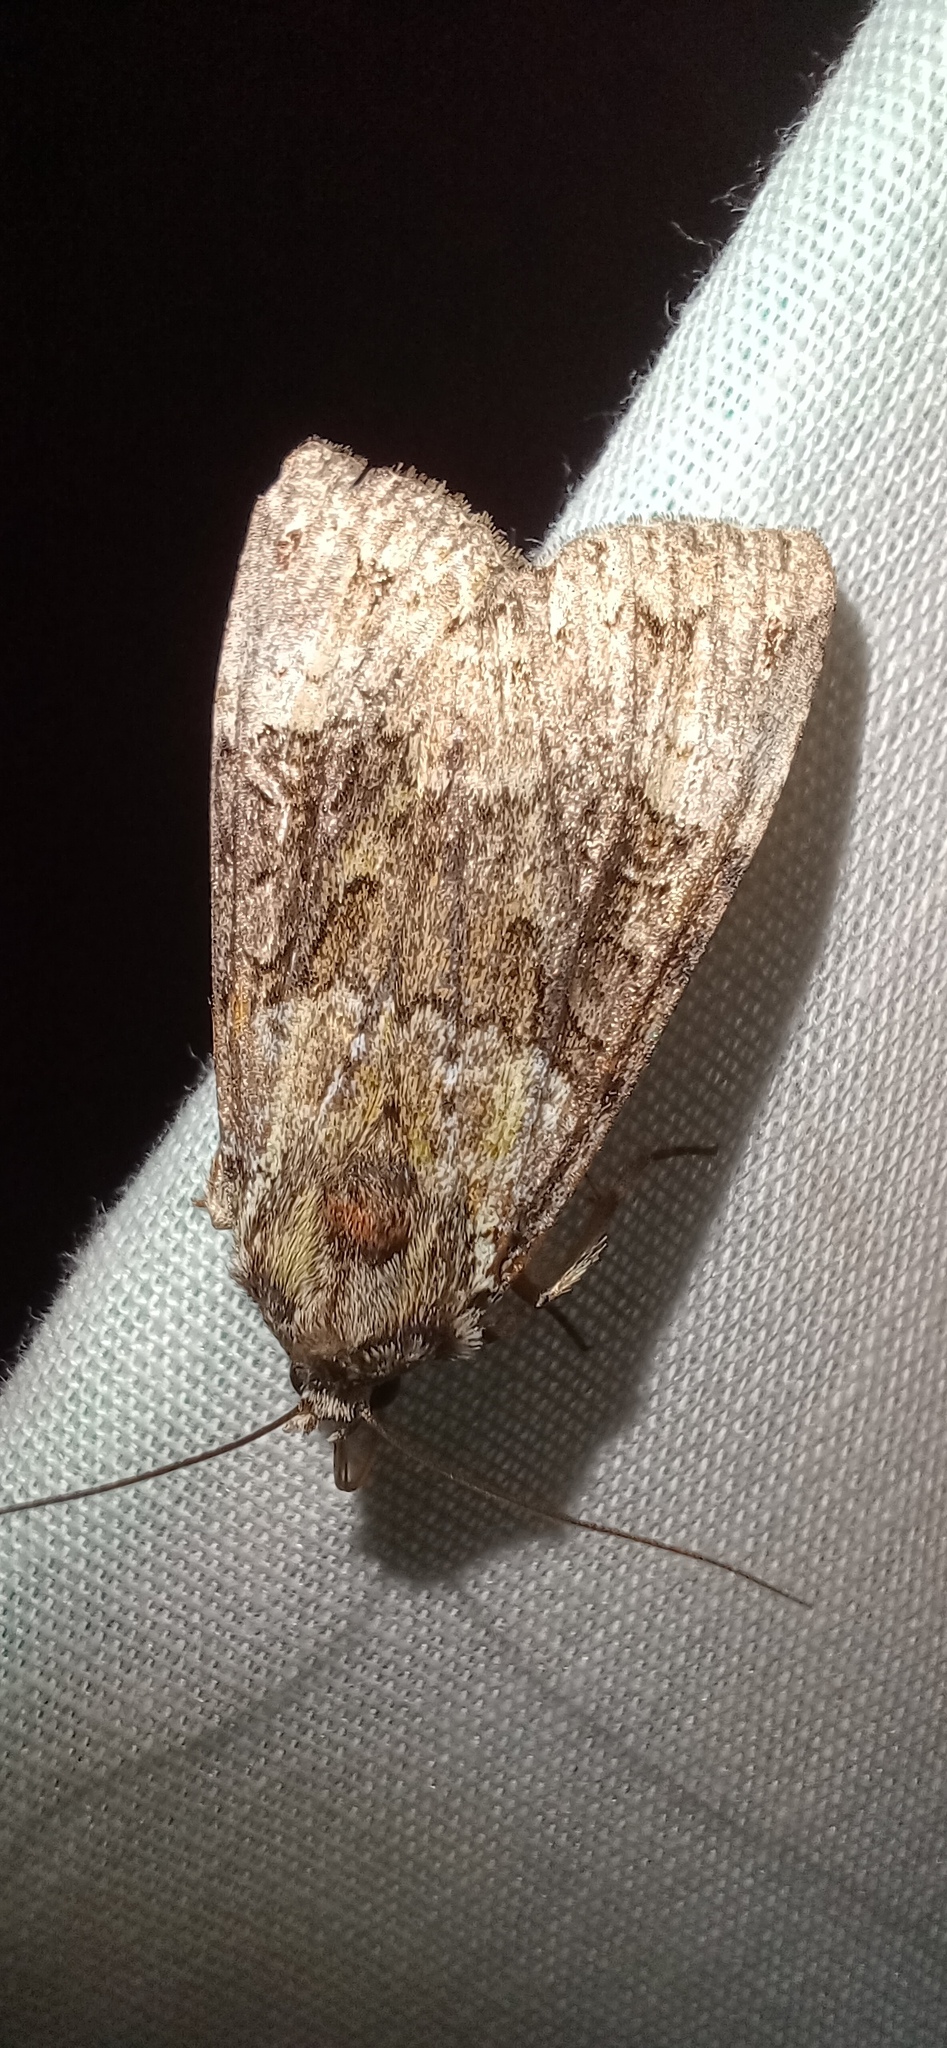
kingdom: Animalia
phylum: Arthropoda
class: Insecta
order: Lepidoptera
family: Noctuidae
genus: Anaplectoides
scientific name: Anaplectoides prasina
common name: Green arches
